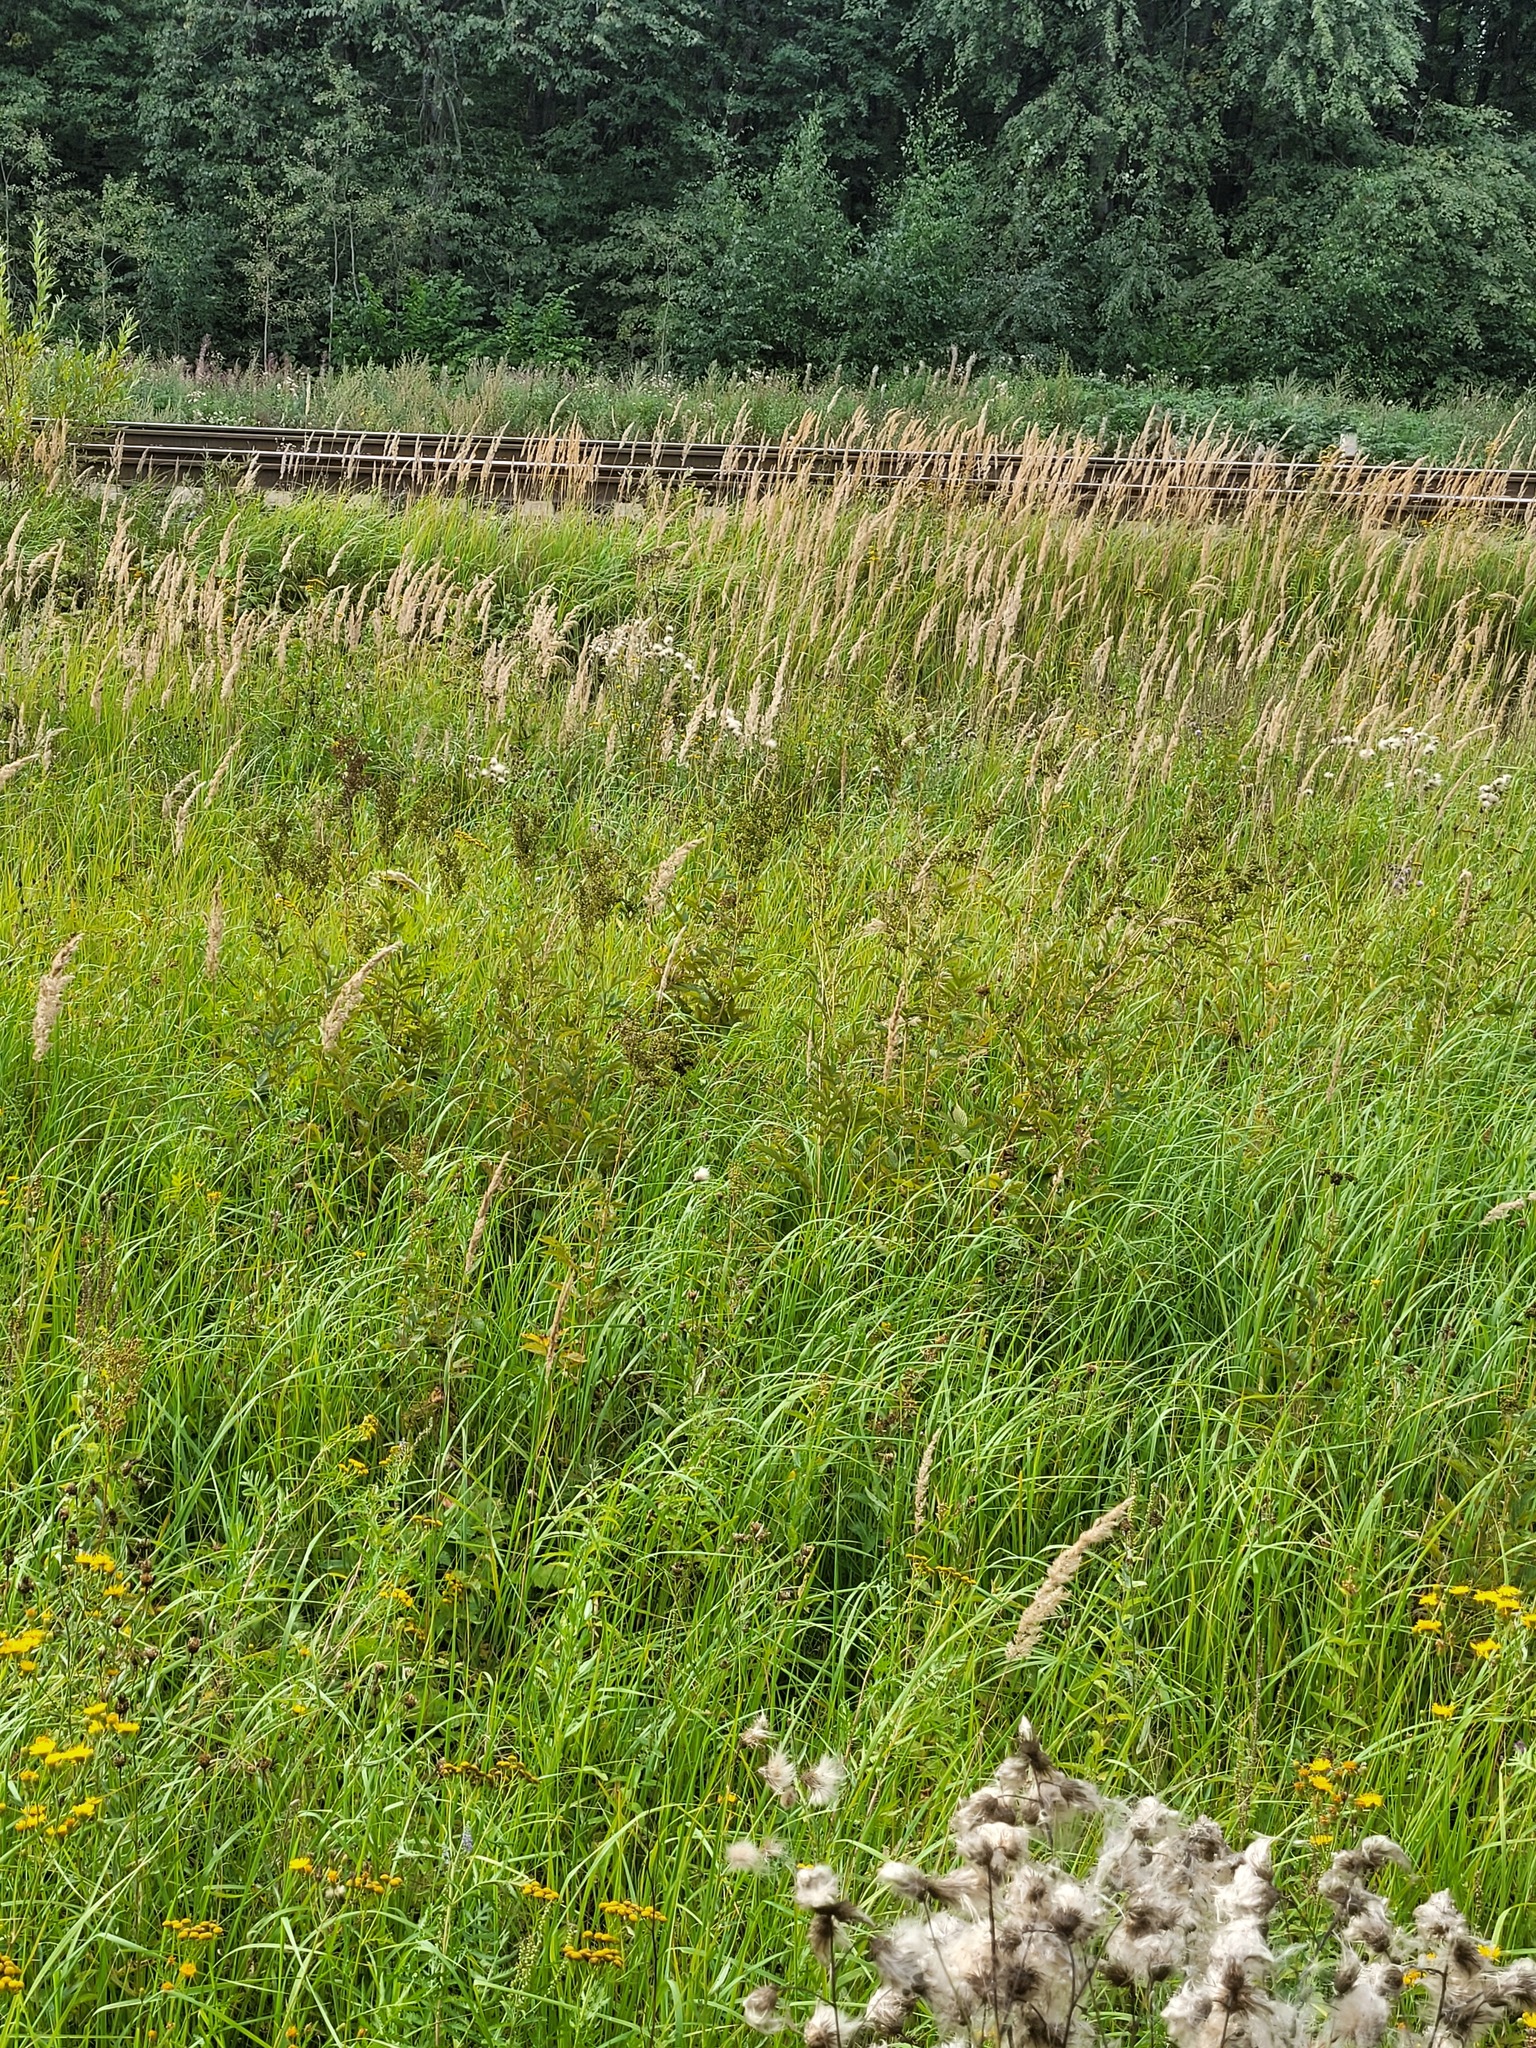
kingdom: Plantae
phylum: Tracheophyta
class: Magnoliopsida
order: Rosales
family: Rosaceae
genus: Filipendula
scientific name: Filipendula ulmaria
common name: Meadowsweet
